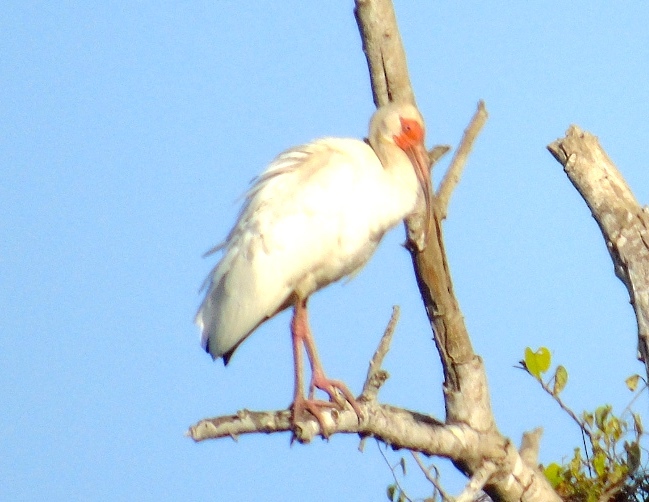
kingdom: Animalia
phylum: Chordata
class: Aves
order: Pelecaniformes
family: Threskiornithidae
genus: Eudocimus
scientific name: Eudocimus albus
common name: White ibis
